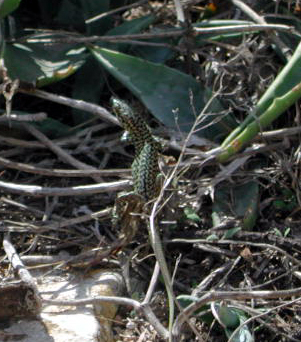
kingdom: Animalia
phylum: Chordata
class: Squamata
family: Lacertidae
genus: Podarcis
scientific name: Podarcis filfolensis
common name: Maltese wall lizard
